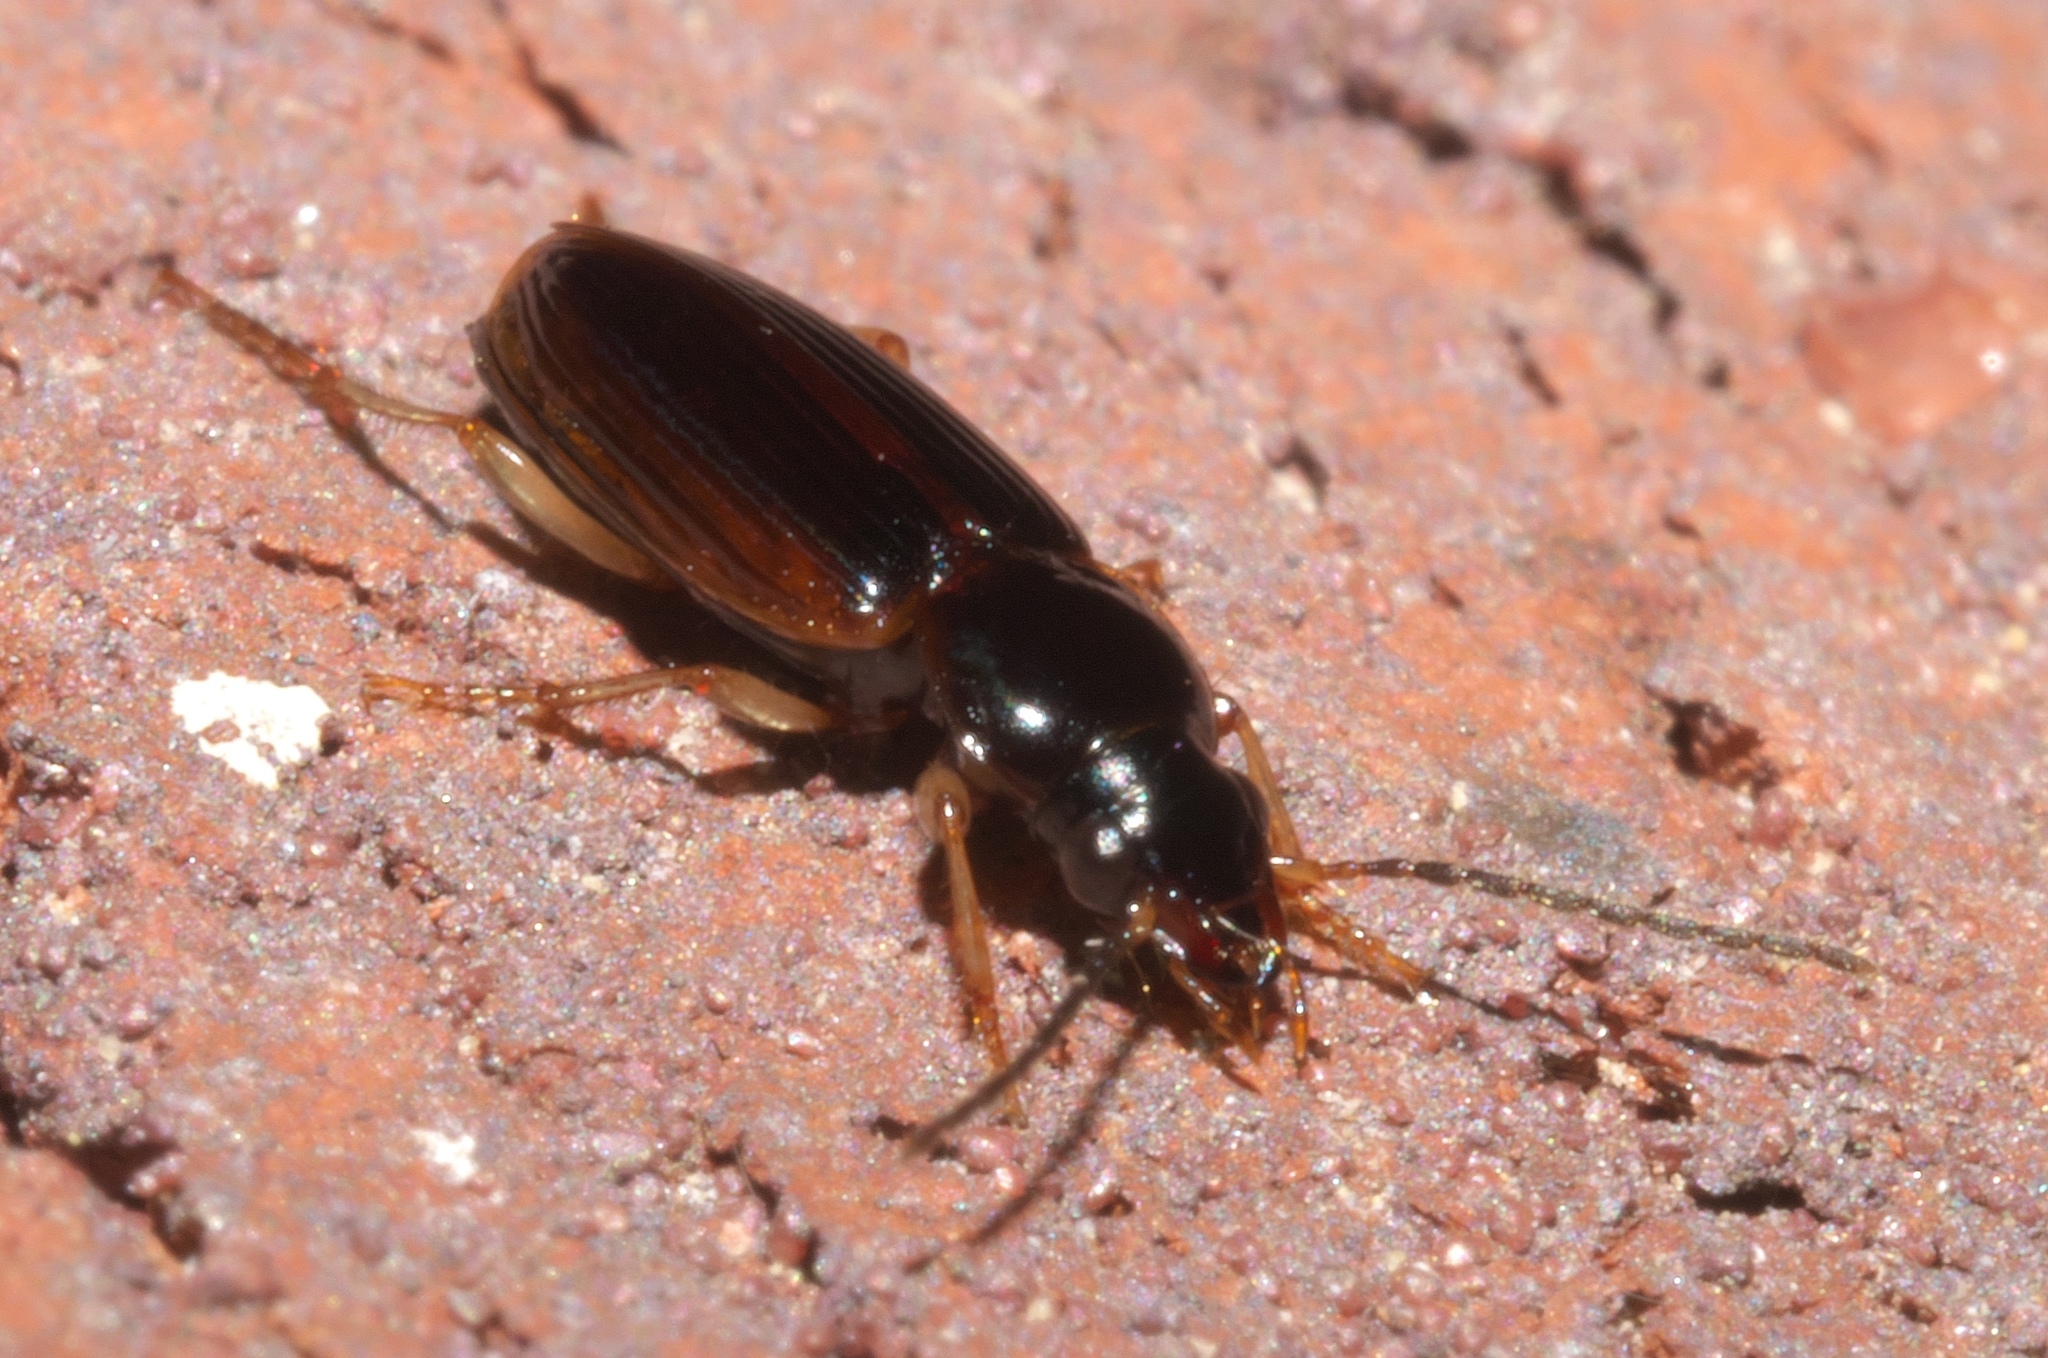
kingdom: Animalia
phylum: Arthropoda
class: Insecta
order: Coleoptera
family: Carabidae
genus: Stenolophus
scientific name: Stenolophus ochropezus
